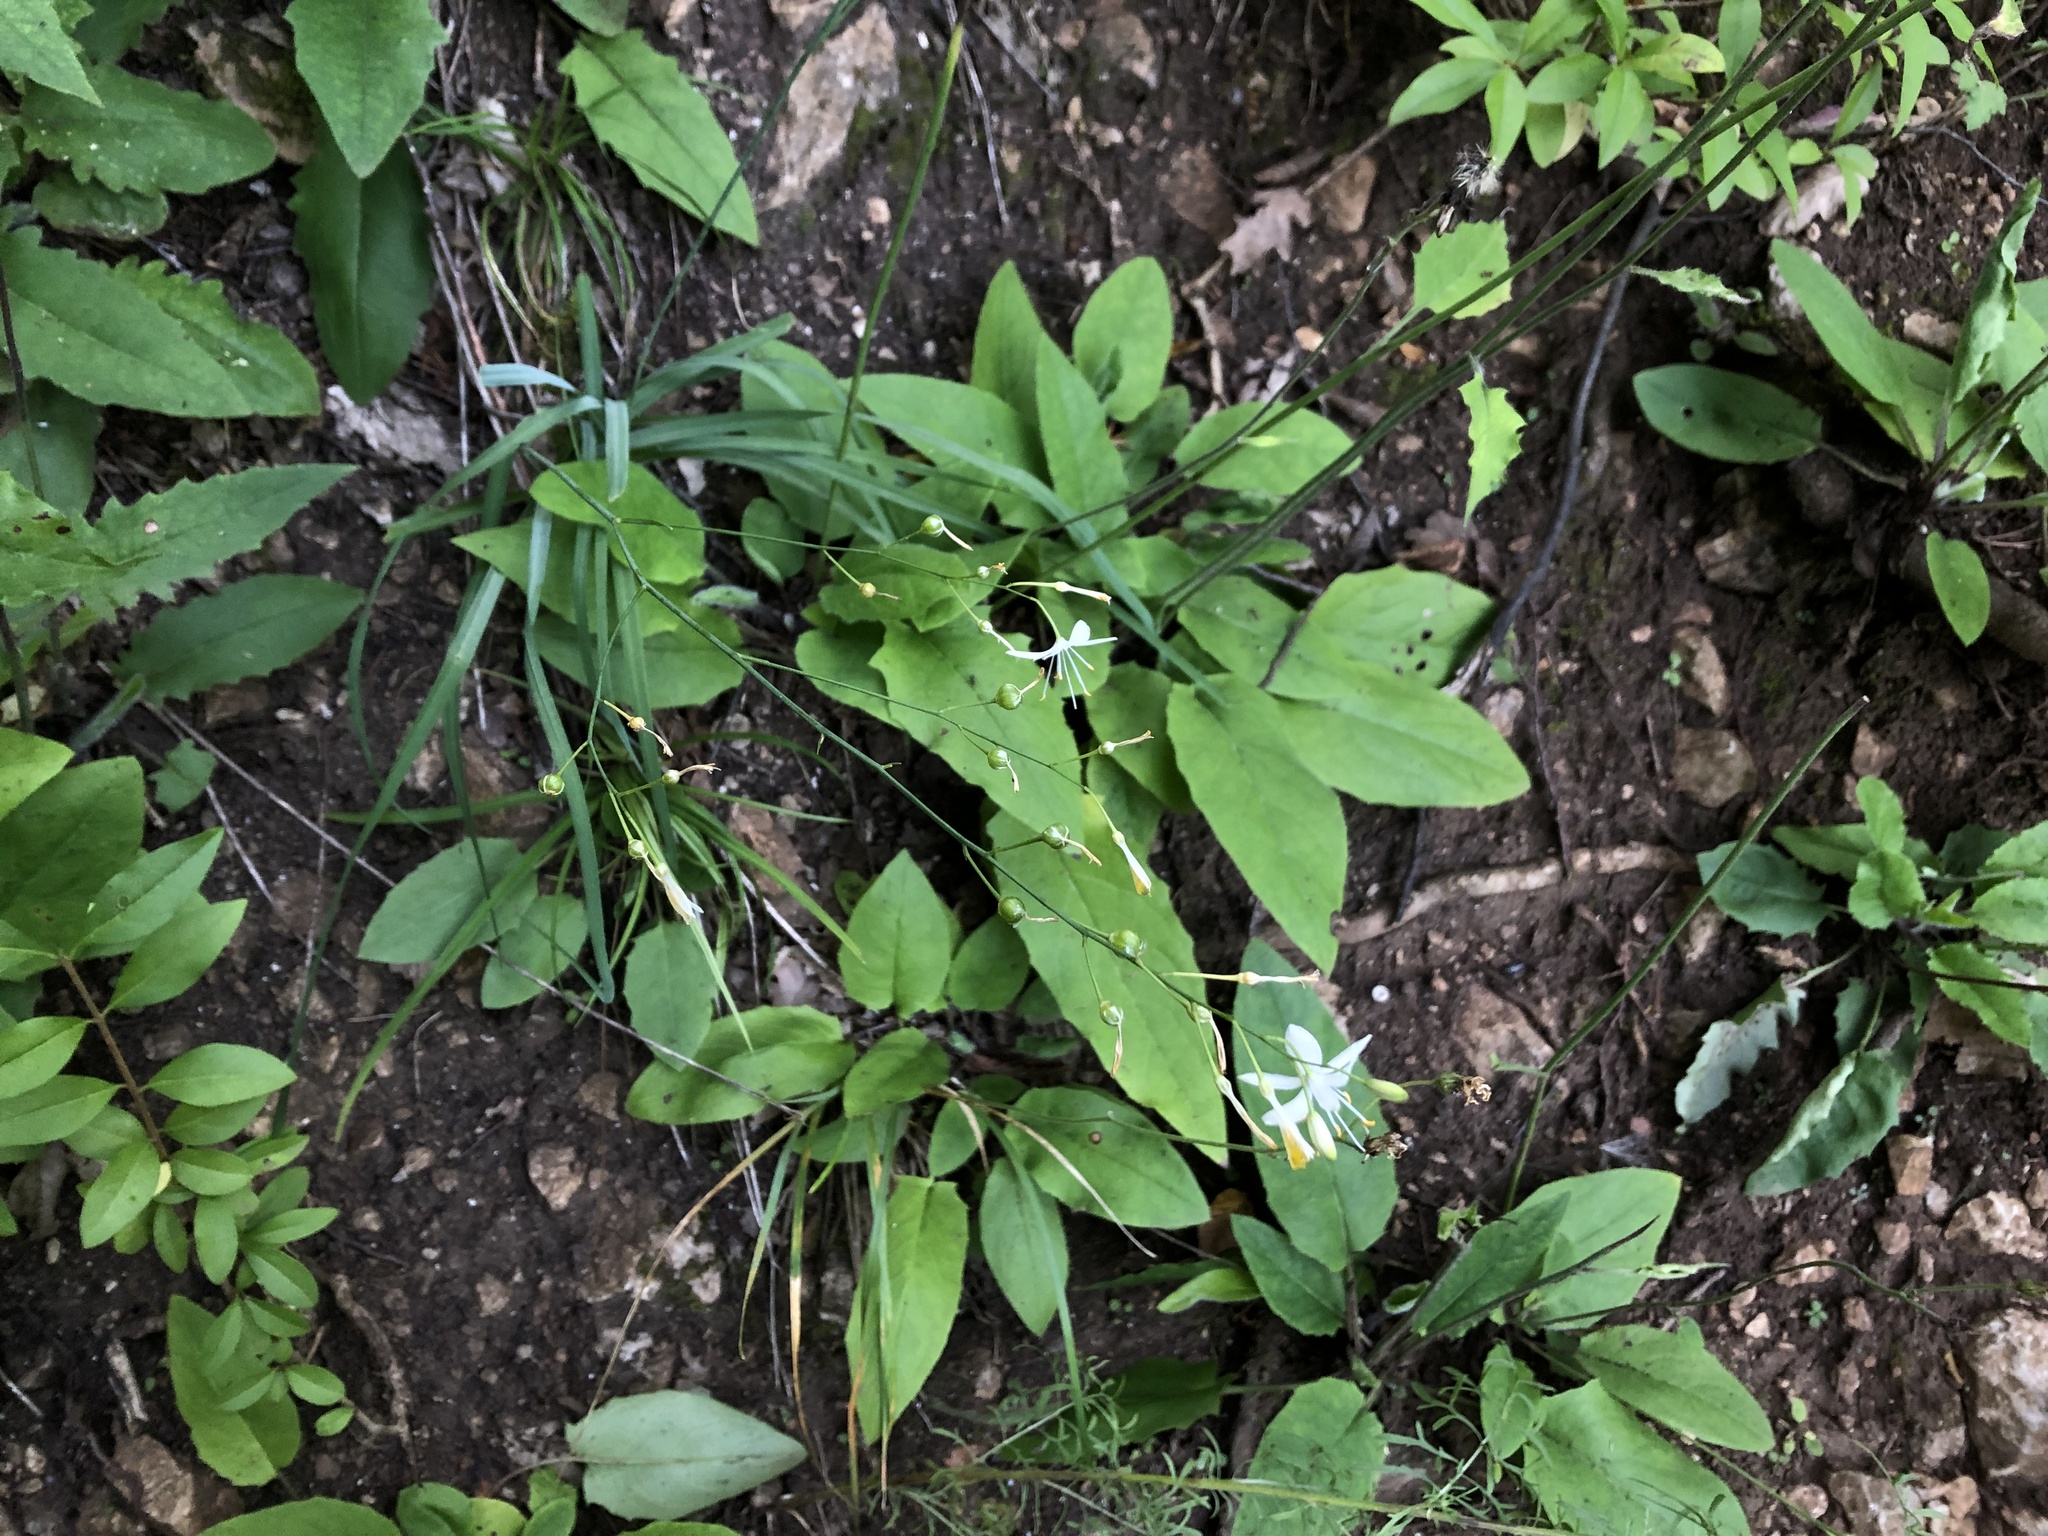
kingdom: Plantae
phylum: Tracheophyta
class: Liliopsida
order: Asparagales
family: Asparagaceae
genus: Anthericum
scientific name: Anthericum ramosum
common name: Branched st. bernard's-lily
